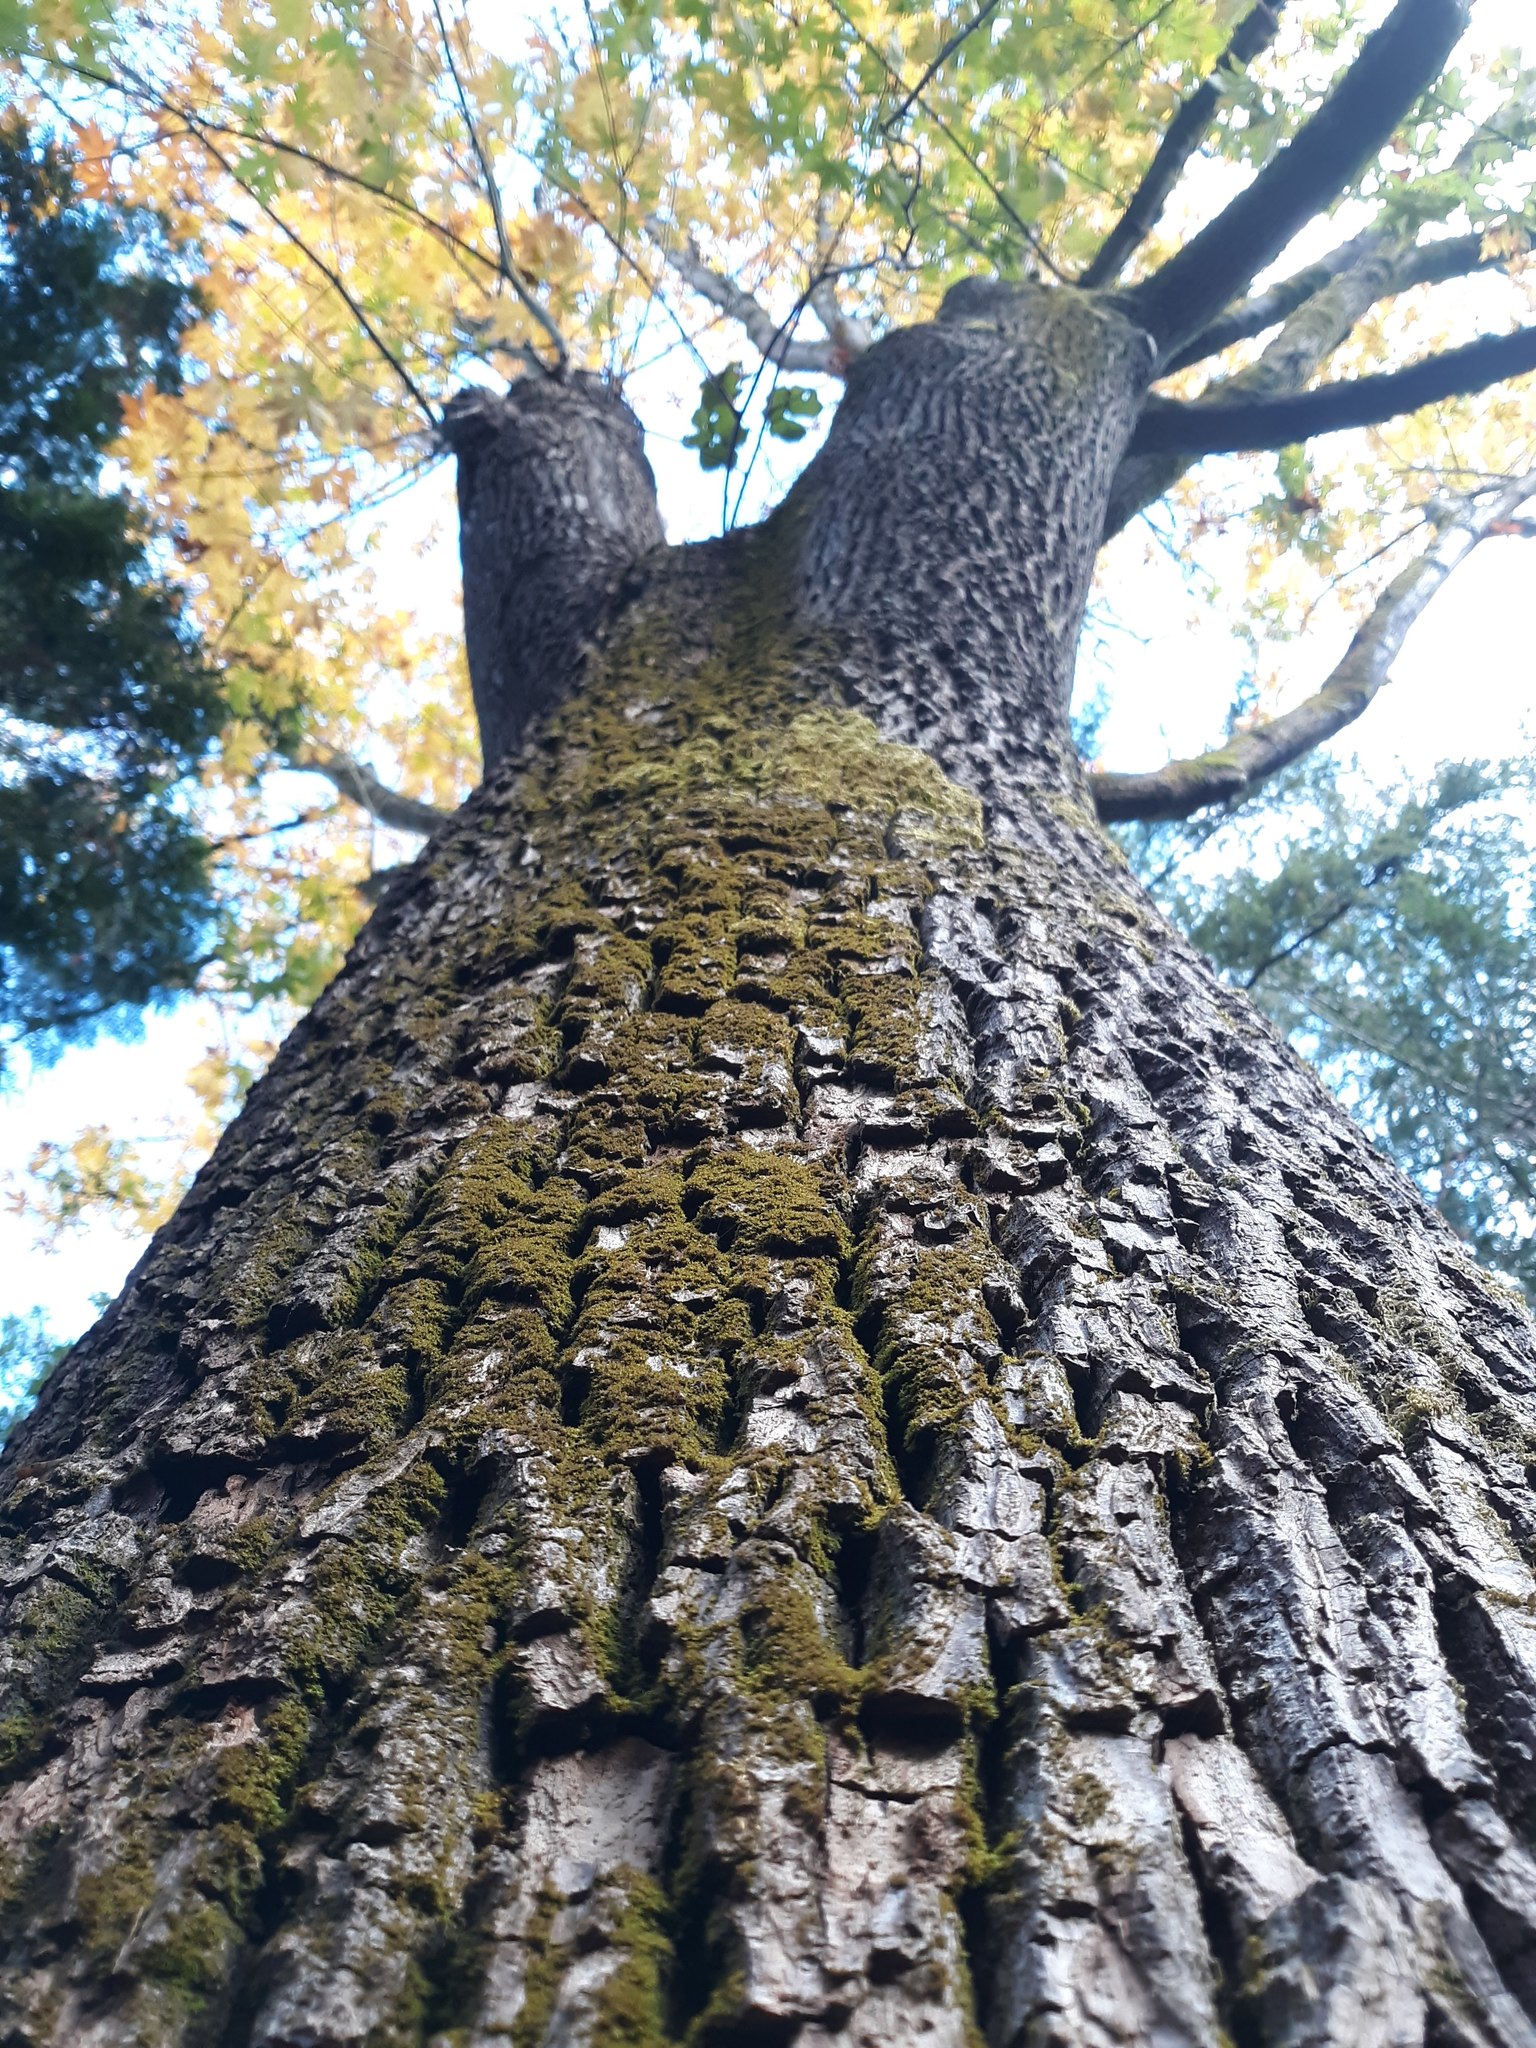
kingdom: Plantae
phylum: Tracheophyta
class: Magnoliopsida
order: Sapindales
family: Sapindaceae
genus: Acer
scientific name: Acer macrophyllum
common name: Oregon maple
